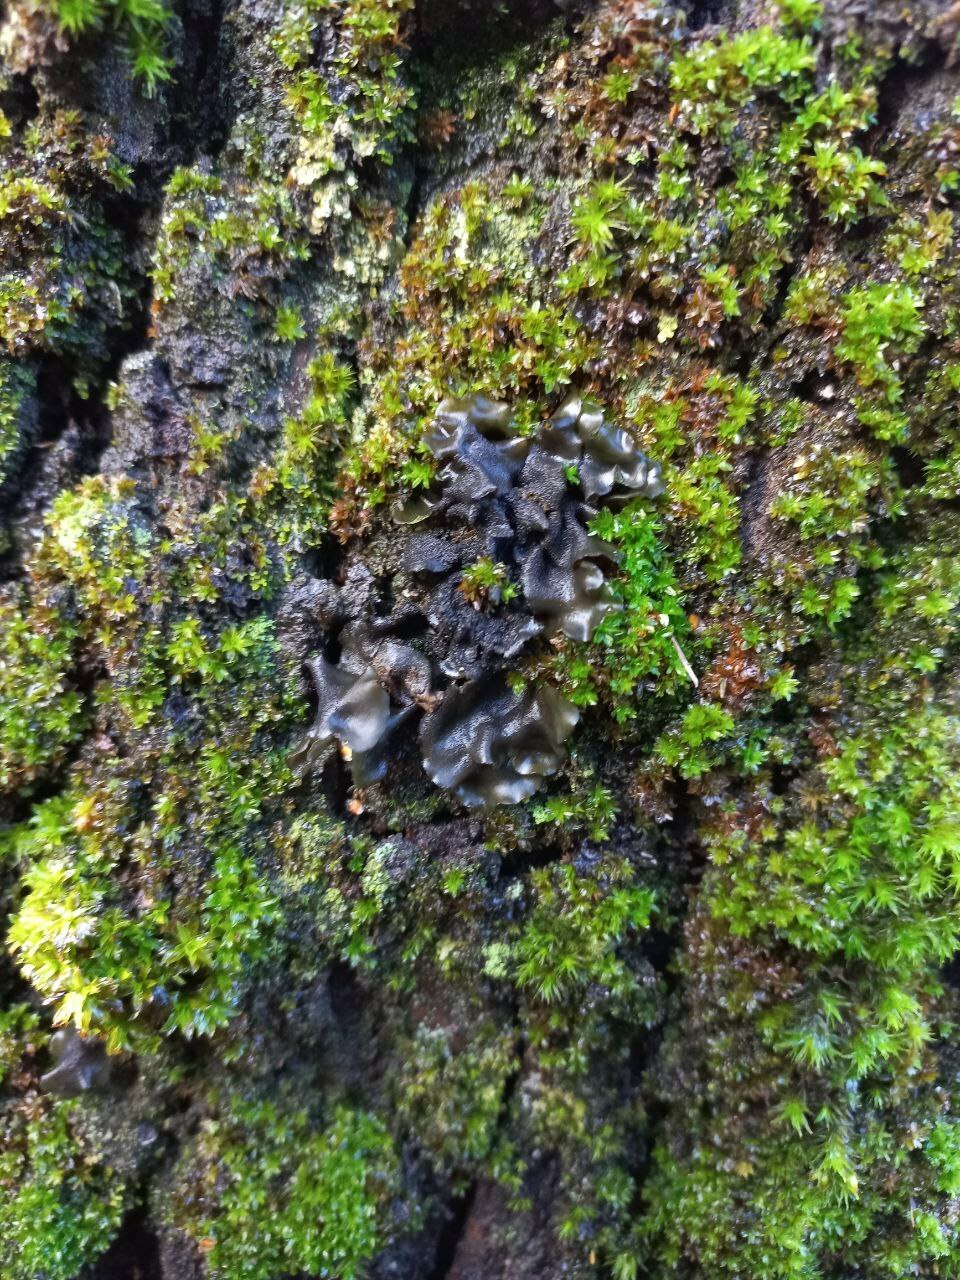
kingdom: Fungi
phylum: Ascomycota
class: Leotiomycetes
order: Helotiales
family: Cordieritidaceae
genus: Ameghiniella
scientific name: Ameghiniella australis
